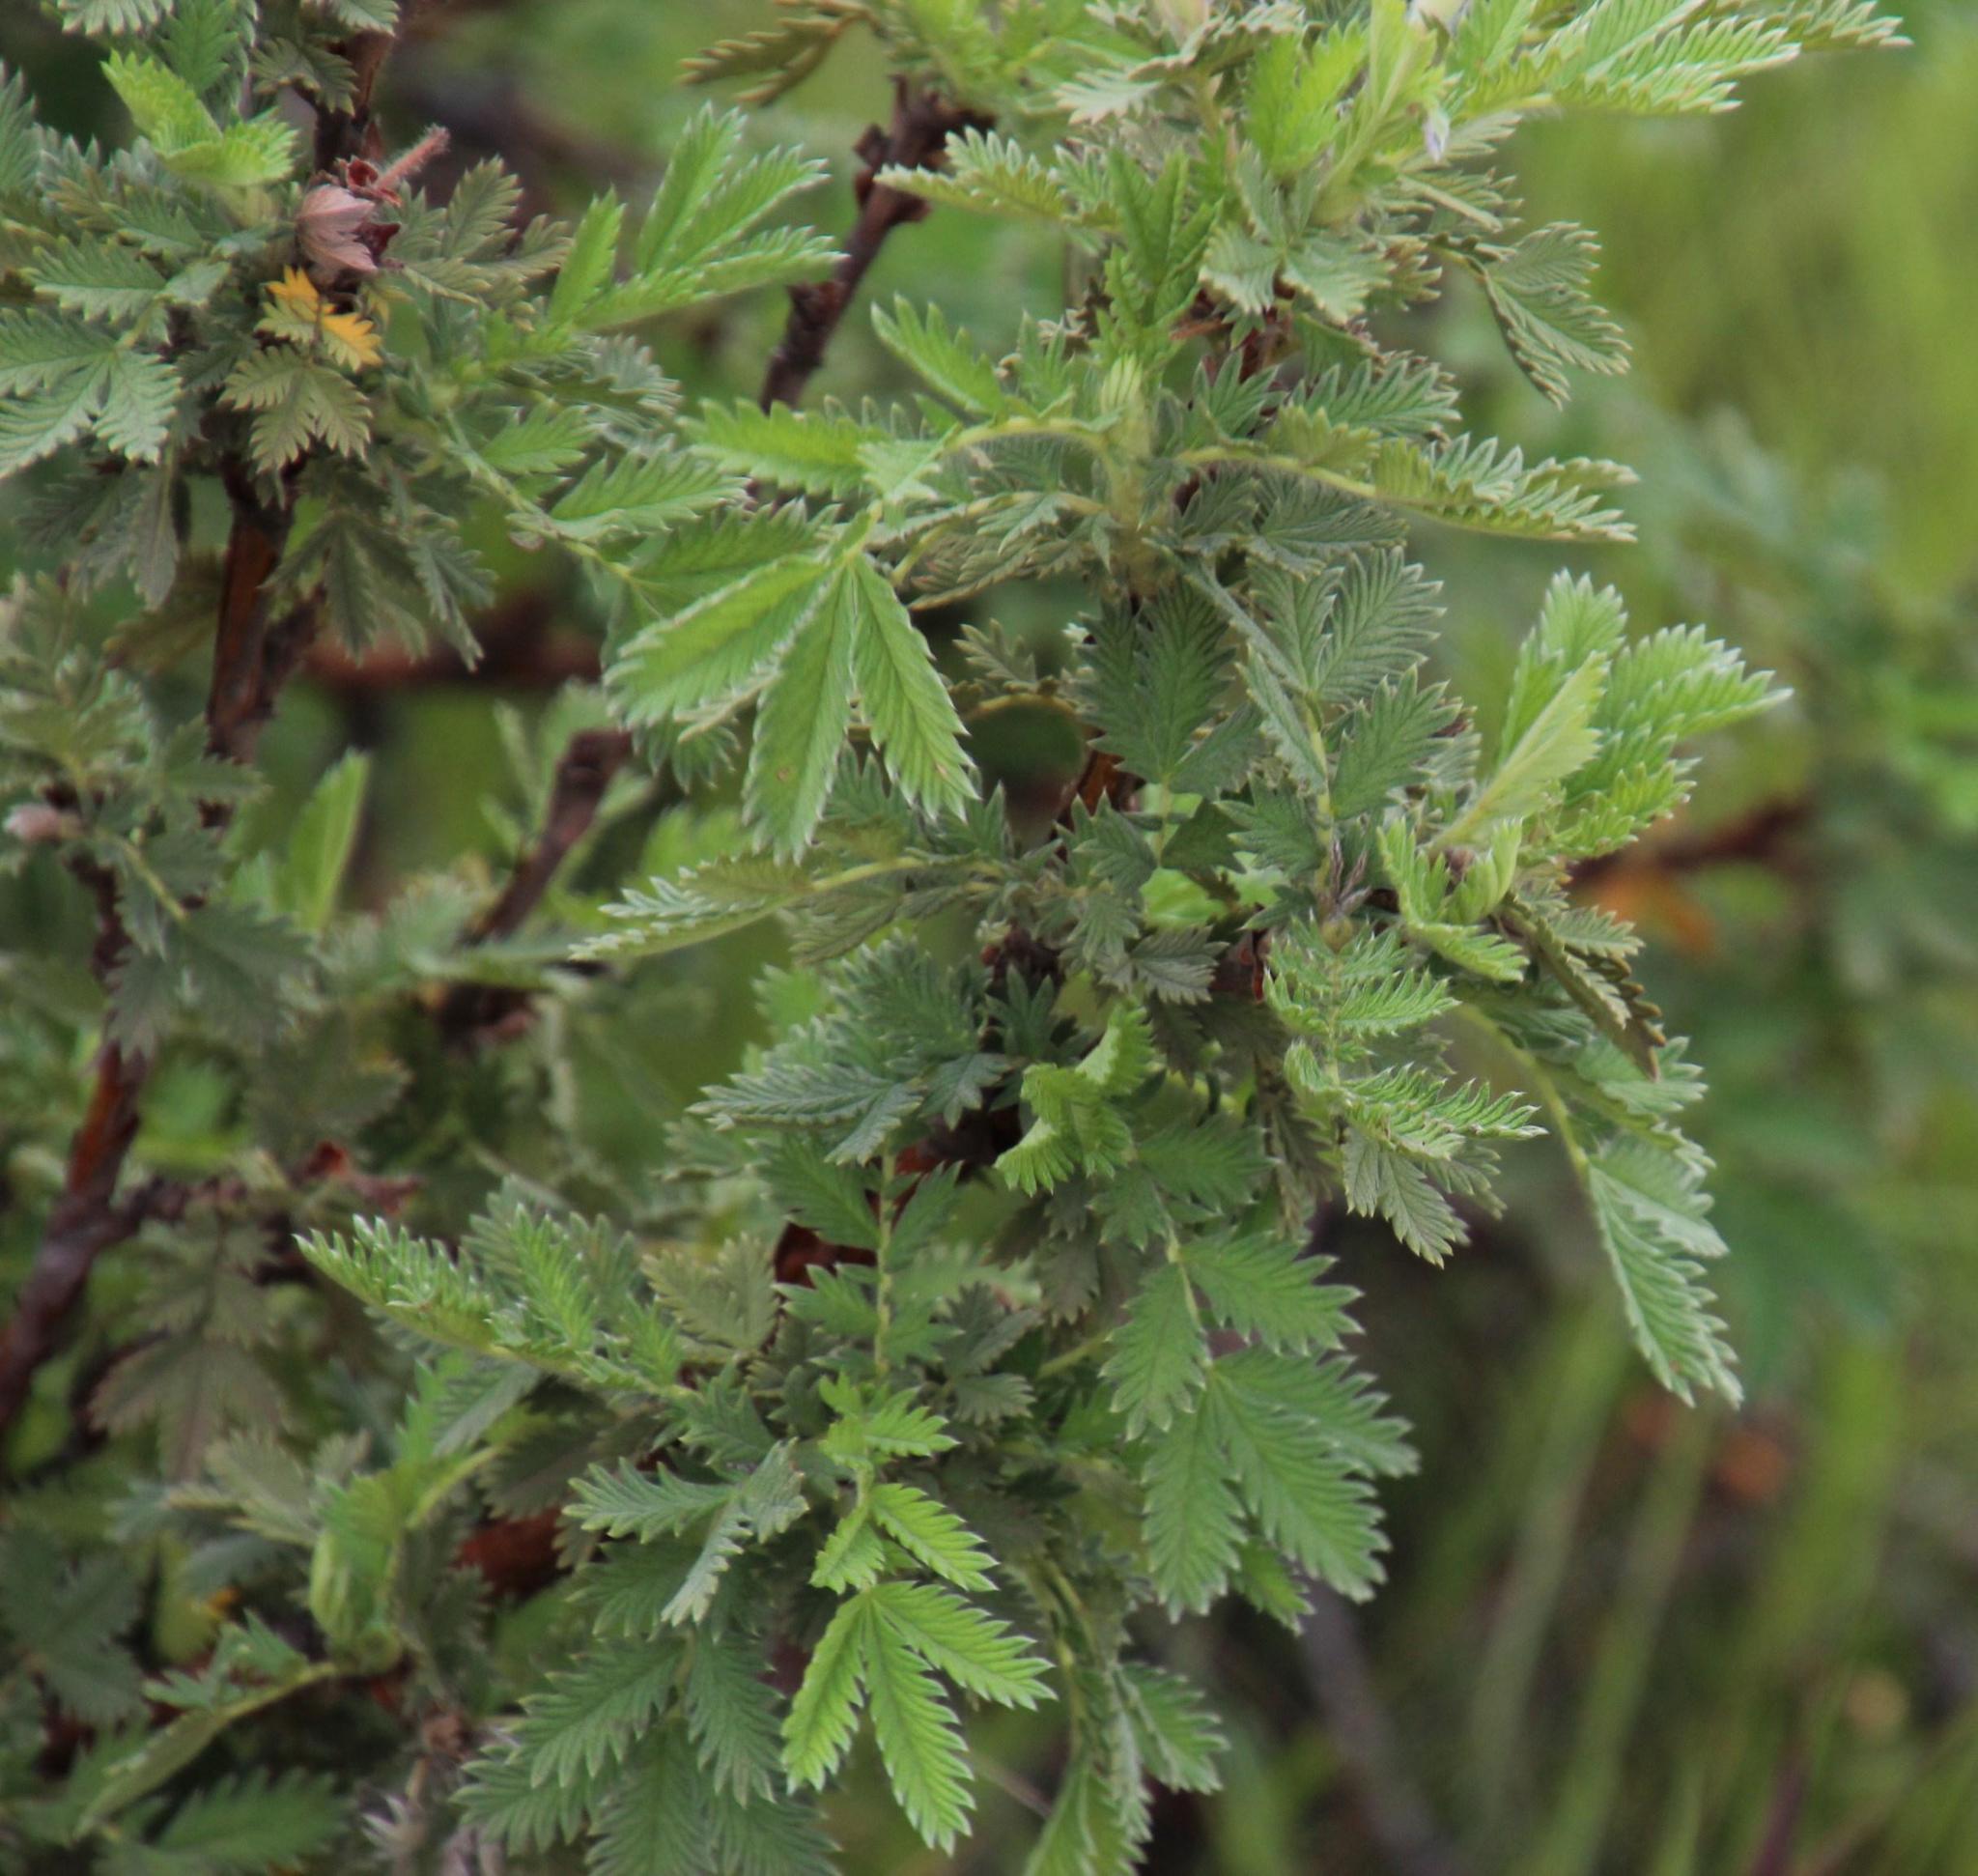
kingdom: Plantae
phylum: Tracheophyta
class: Magnoliopsida
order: Rosales
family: Rosaceae
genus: Leucosidea
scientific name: Leucosidea sericea
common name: Oldwood
